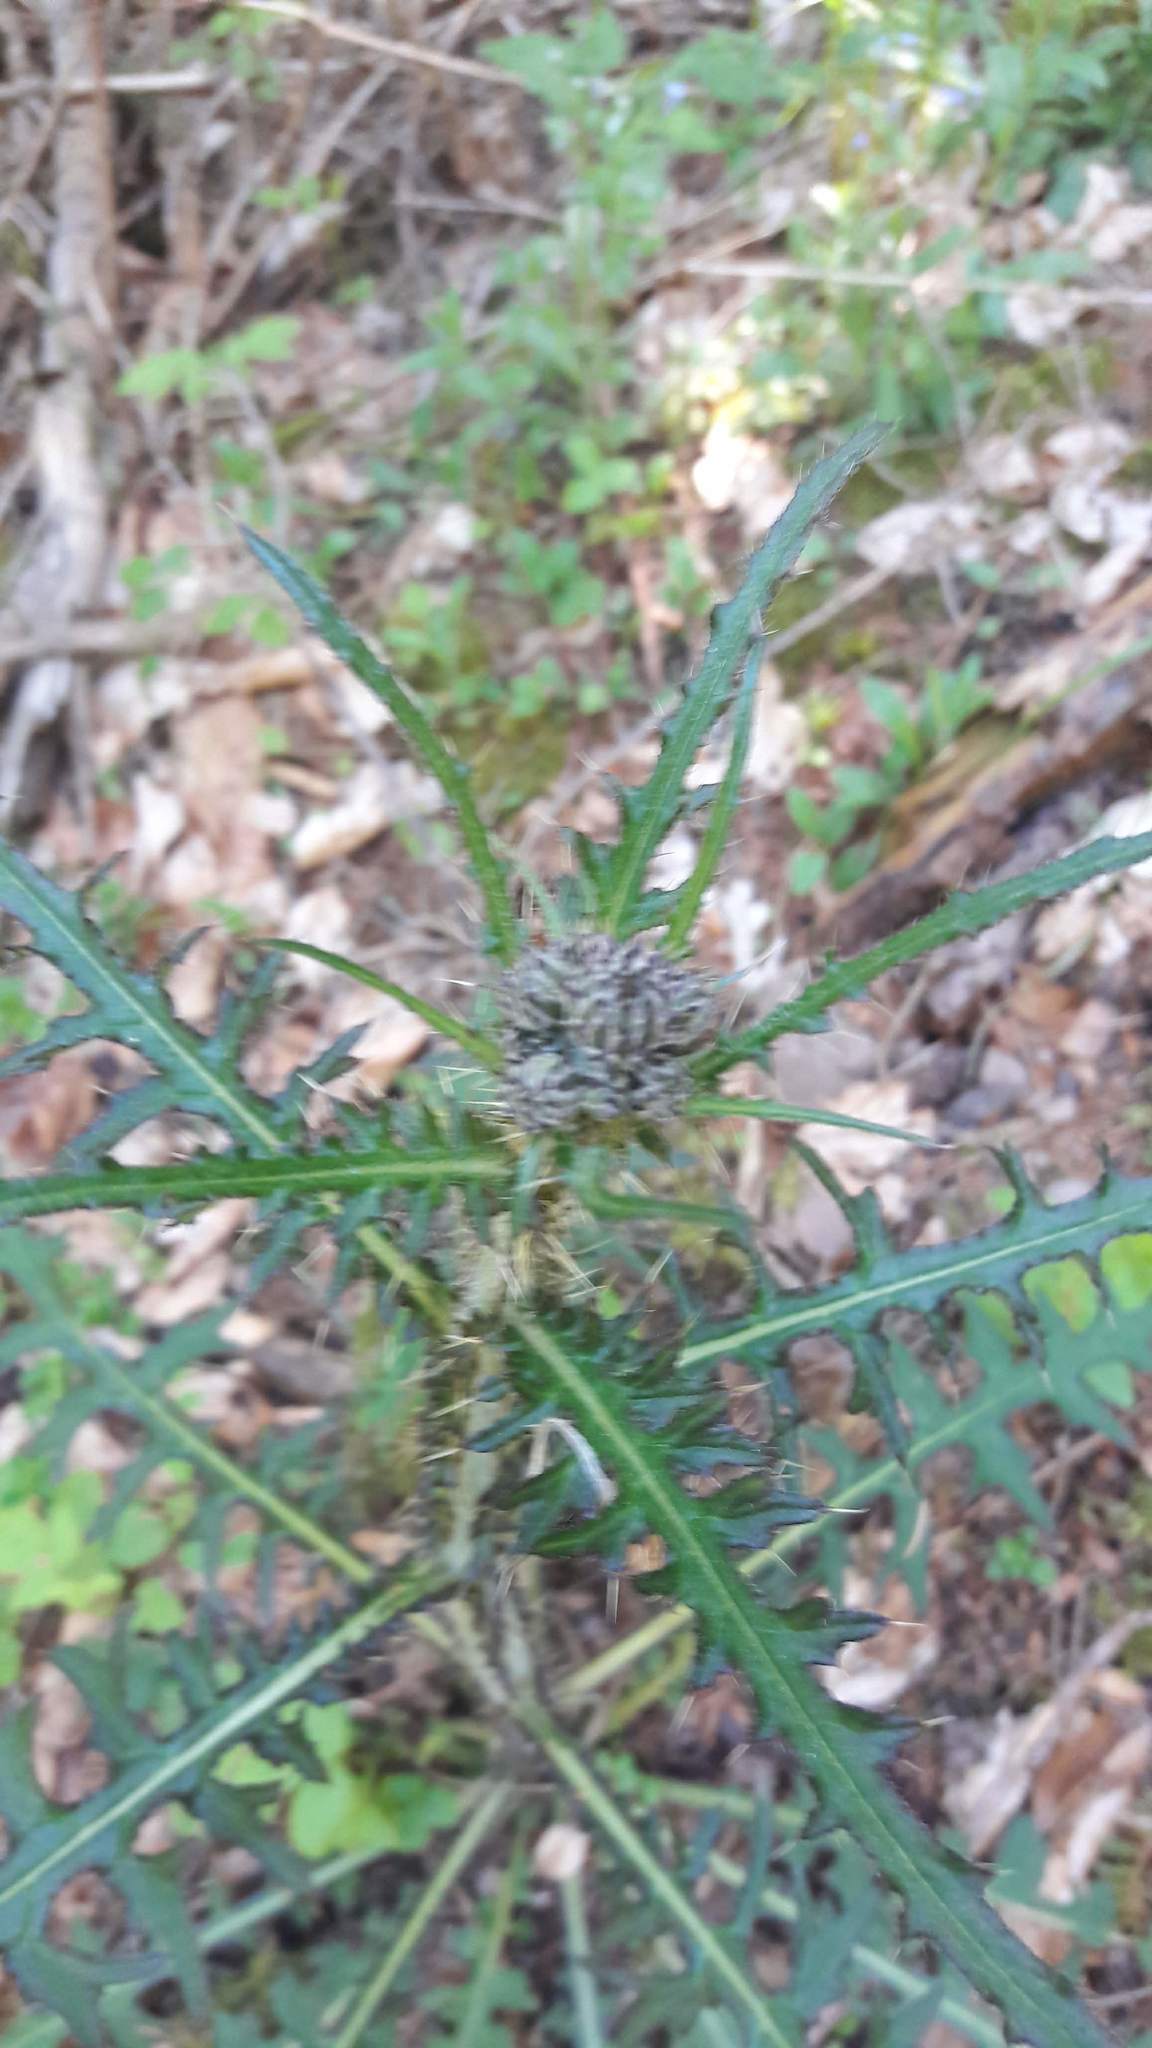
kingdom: Plantae
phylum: Tracheophyta
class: Magnoliopsida
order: Asterales
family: Asteraceae
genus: Cirsium
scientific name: Cirsium palustre
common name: Marsh thistle
